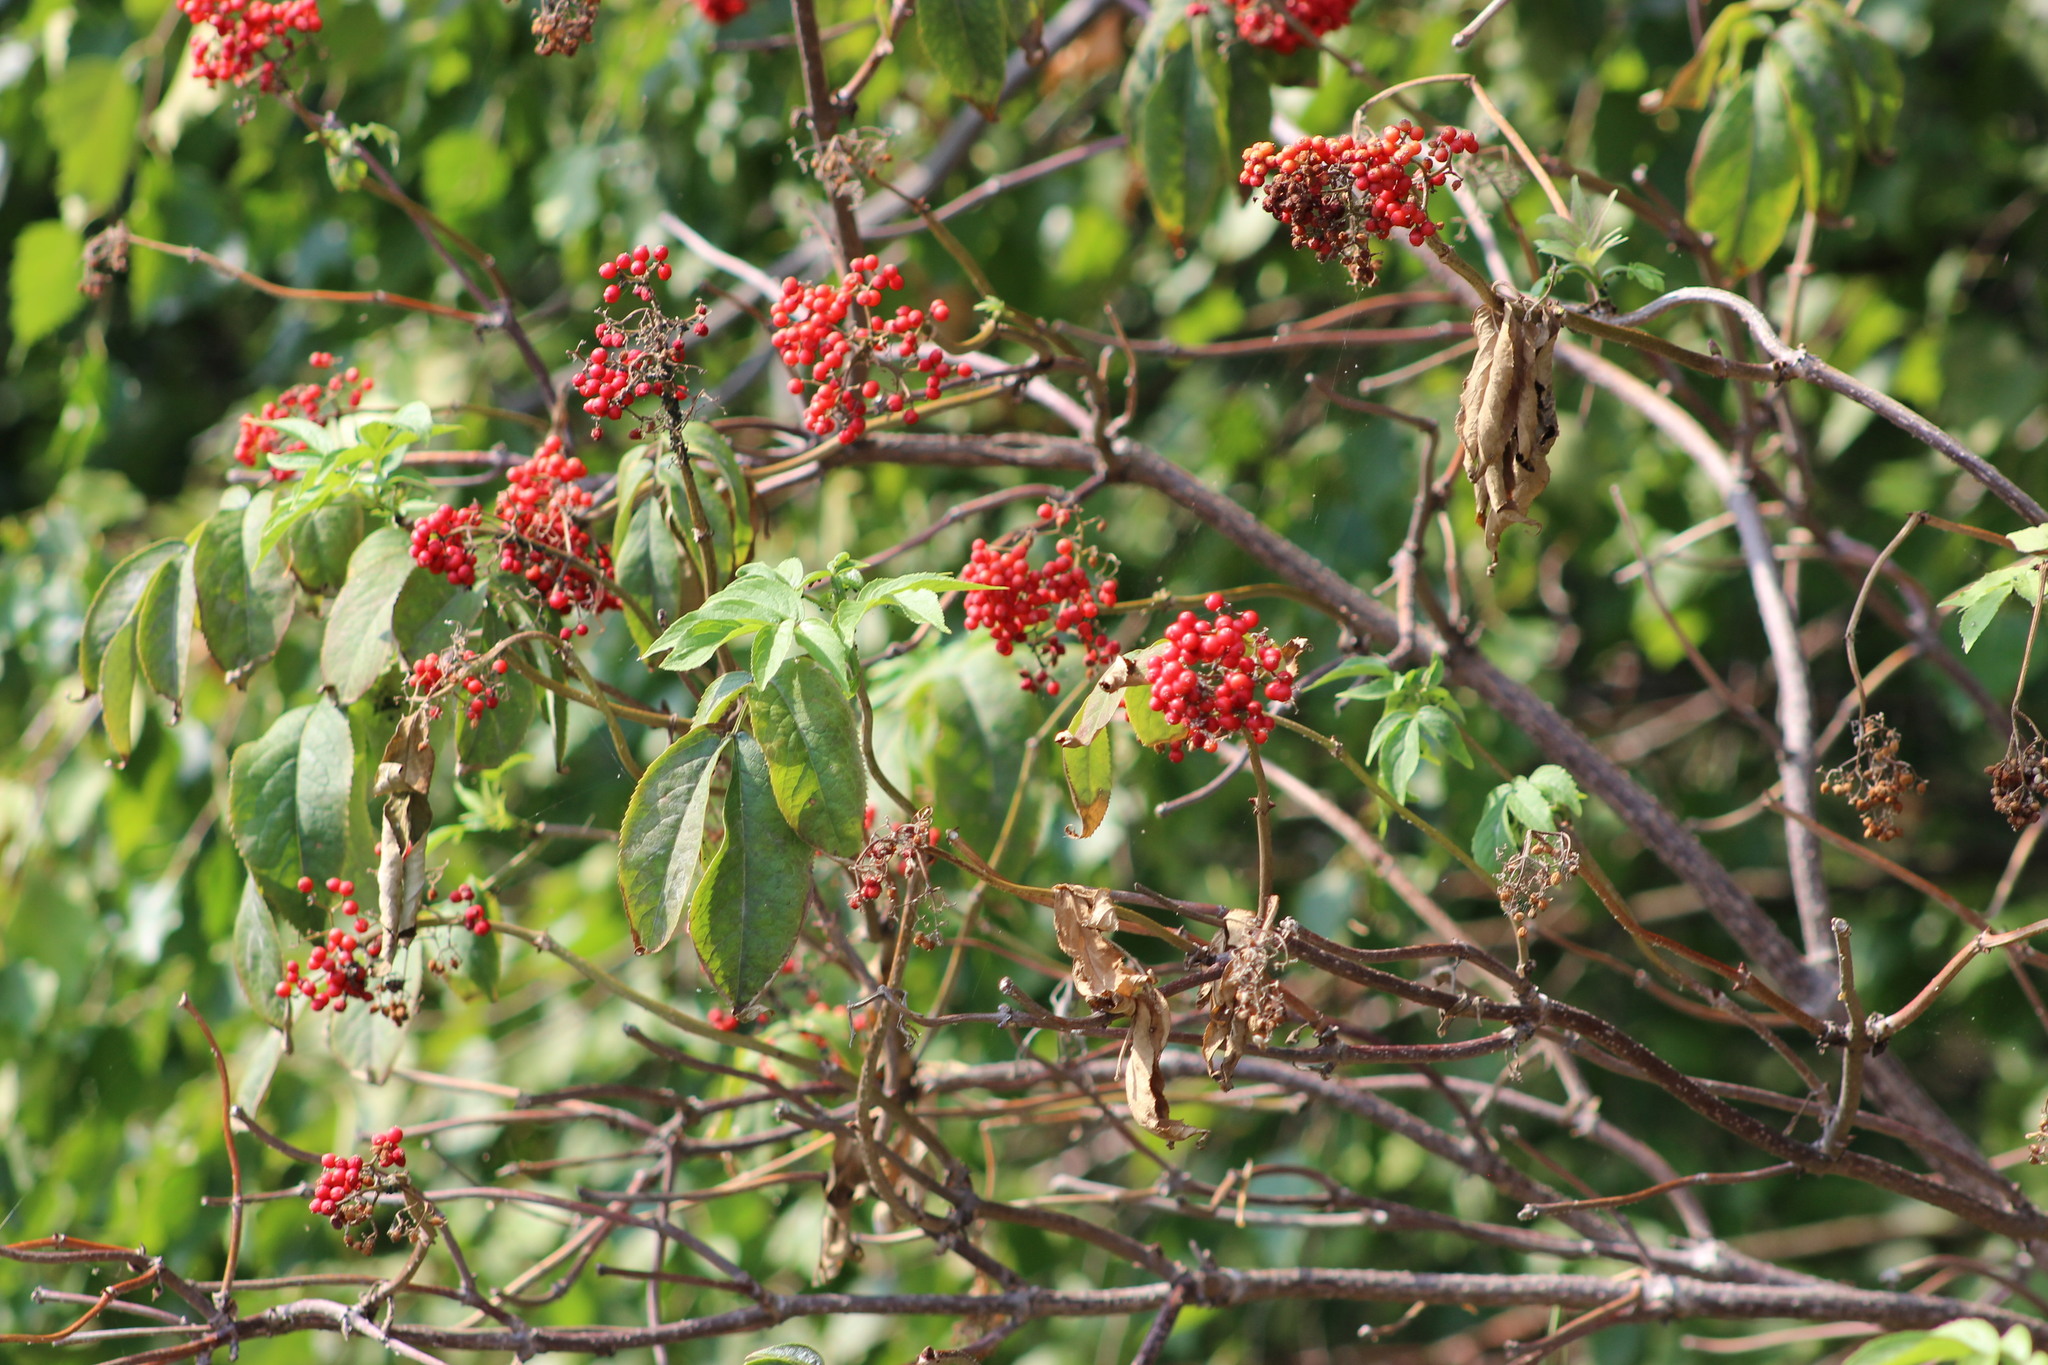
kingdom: Plantae
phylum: Tracheophyta
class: Magnoliopsida
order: Dipsacales
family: Viburnaceae
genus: Sambucus
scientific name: Sambucus sibirica
